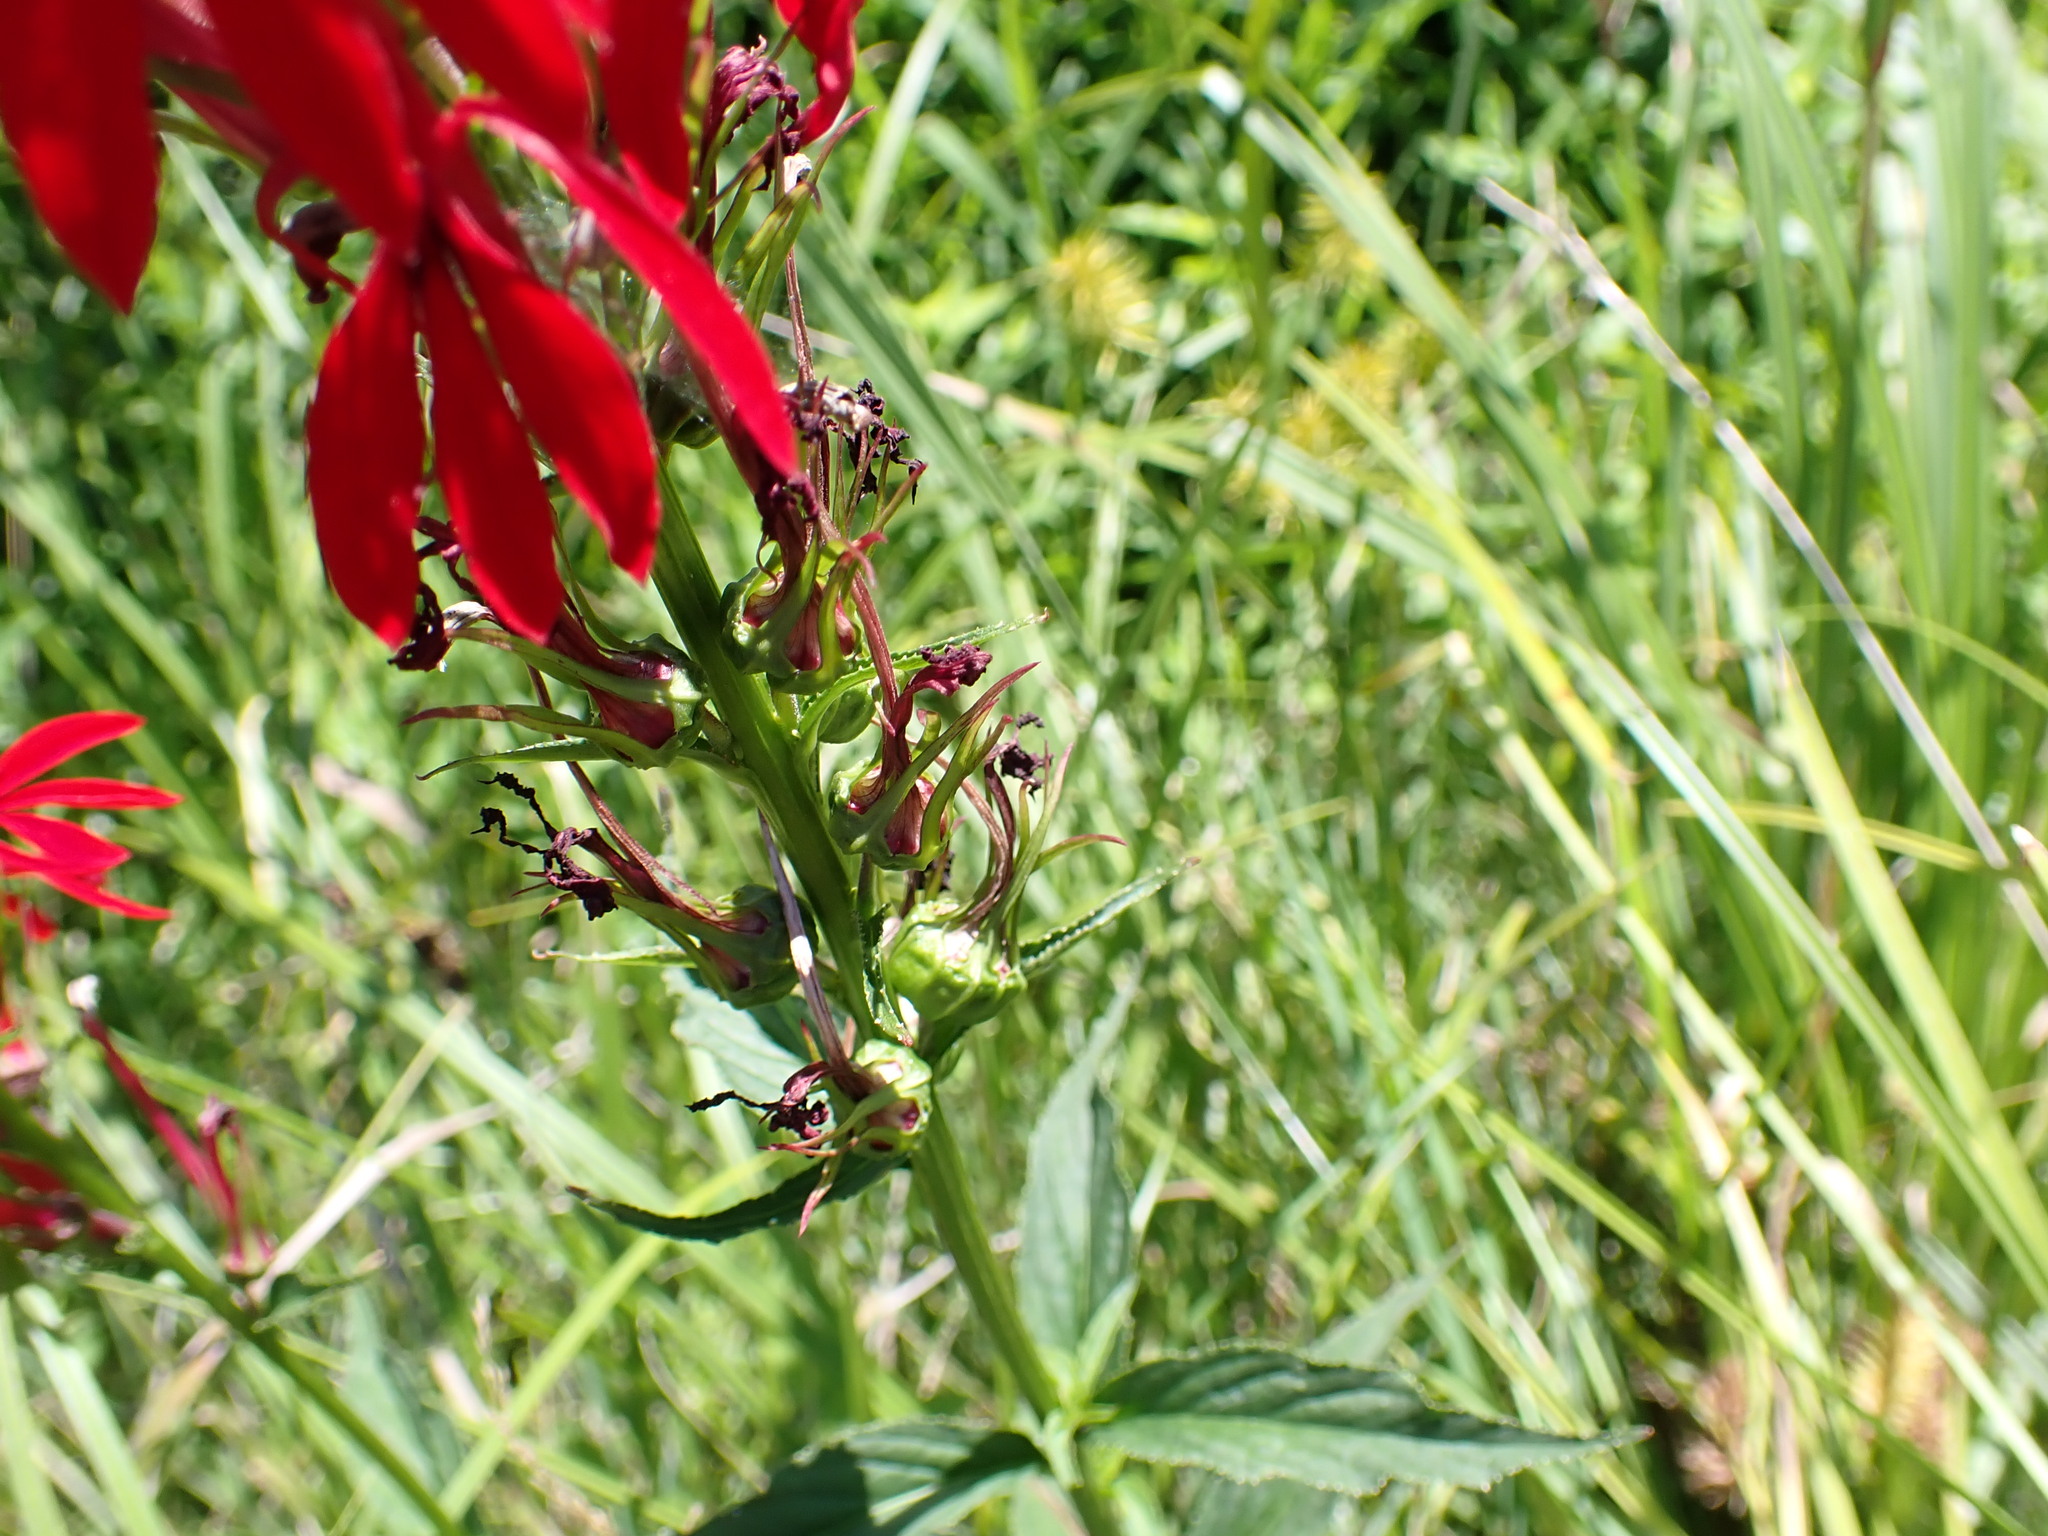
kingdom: Plantae
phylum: Tracheophyta
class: Magnoliopsida
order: Asterales
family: Campanulaceae
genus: Lobelia
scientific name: Lobelia cardinalis
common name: Cardinal flower
